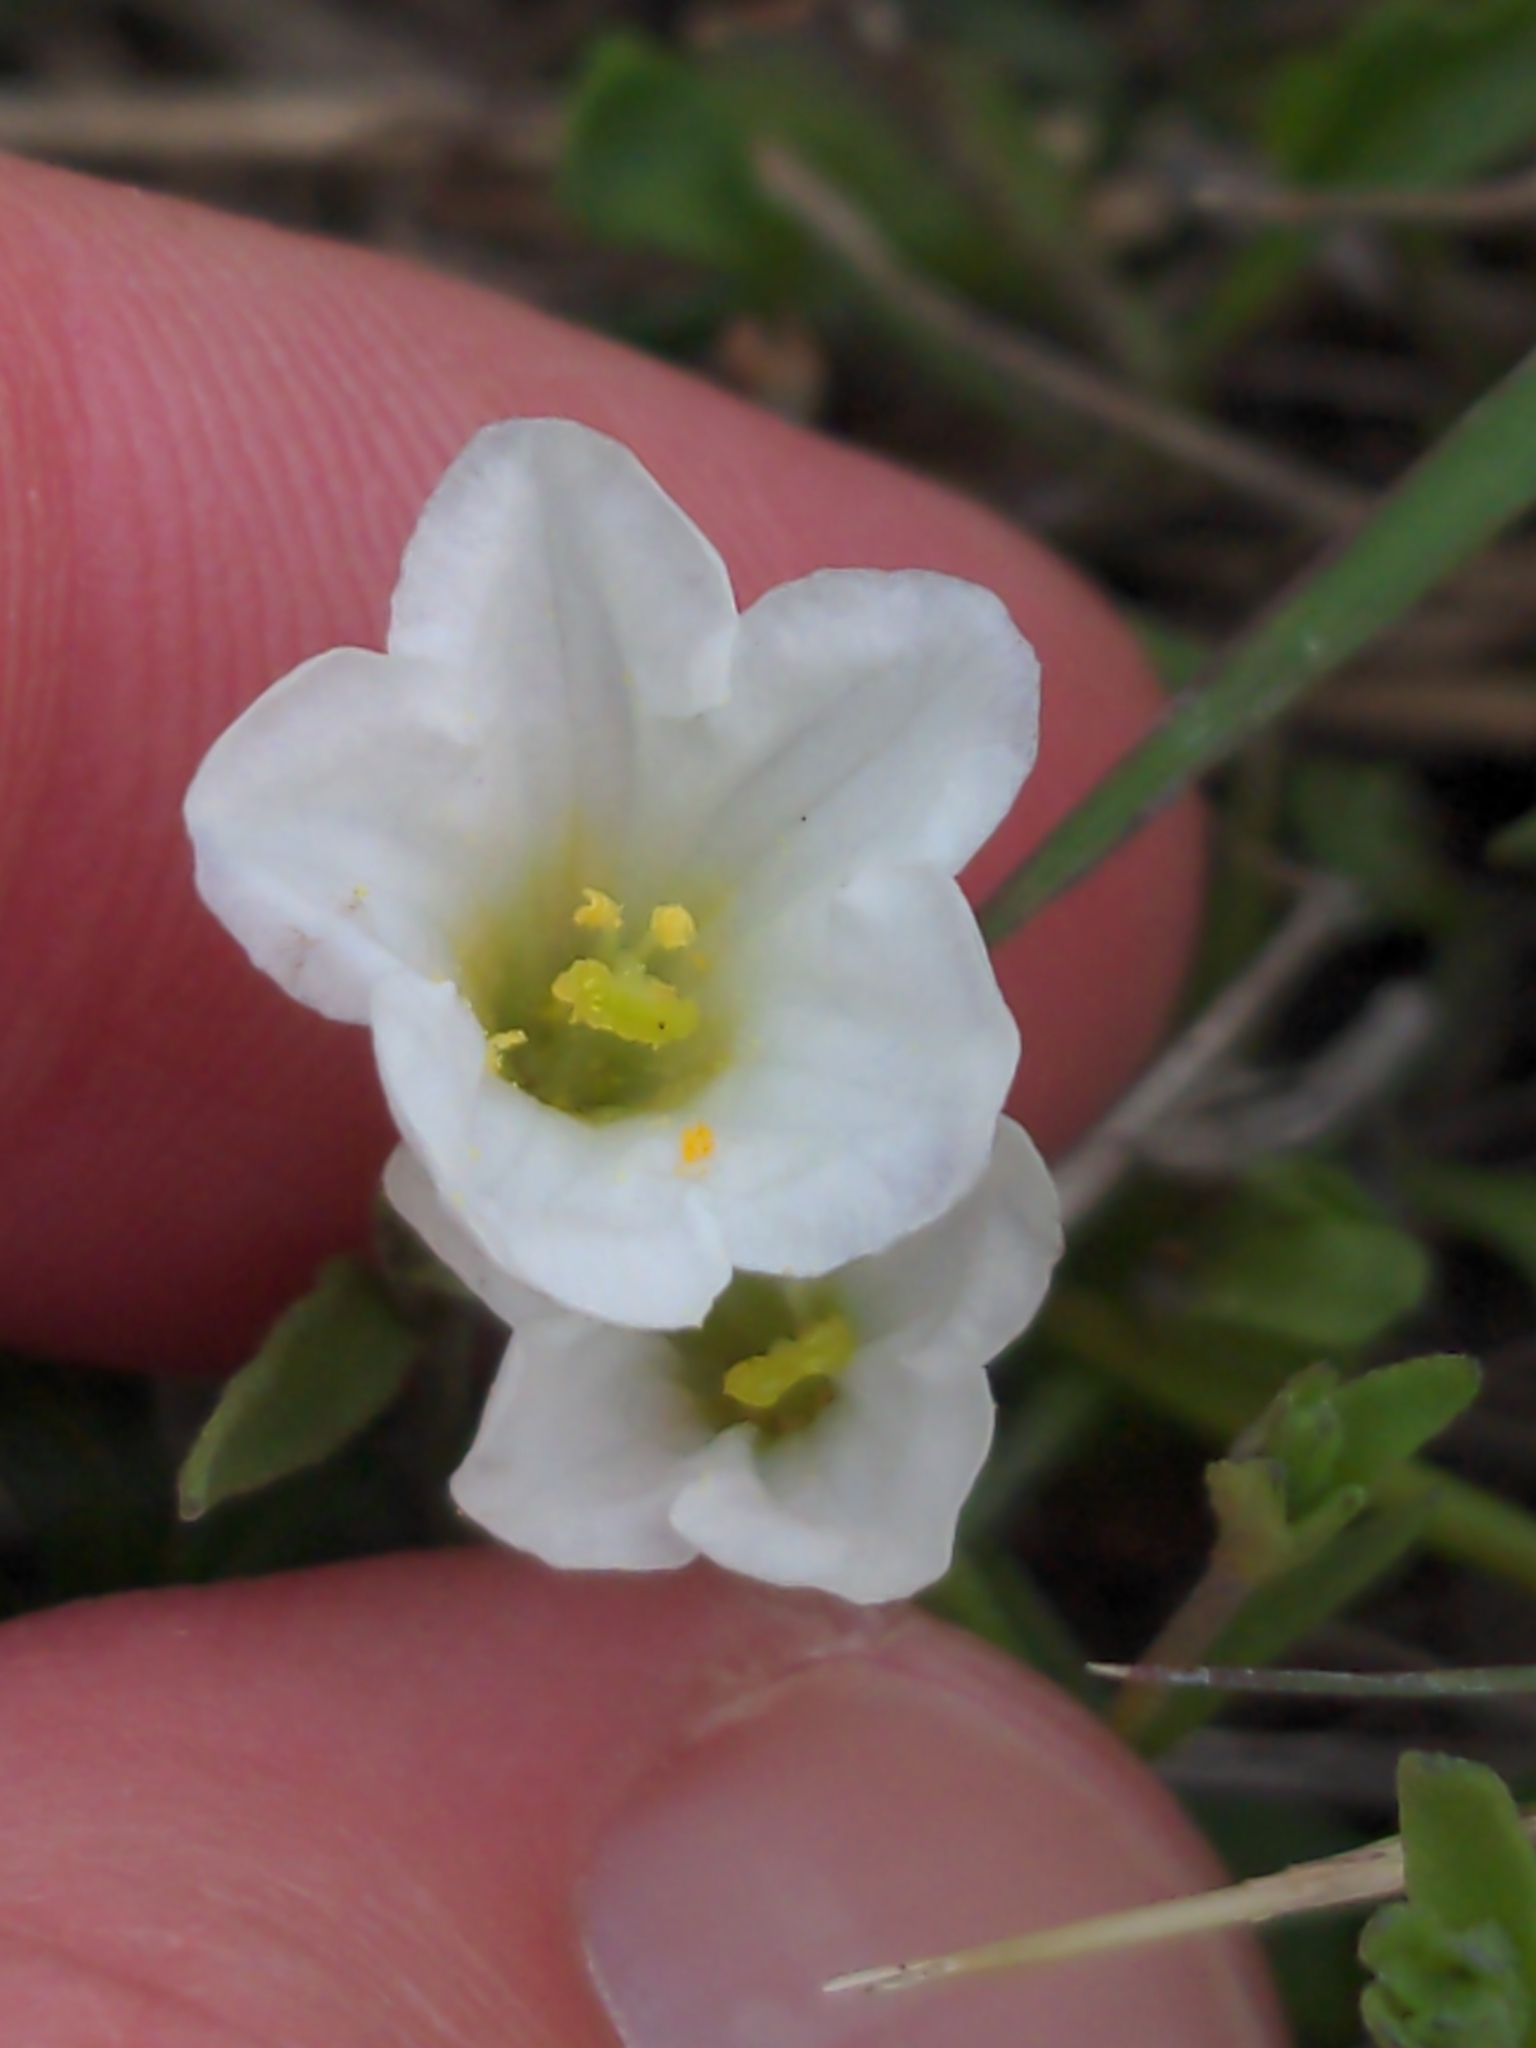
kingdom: Plantae
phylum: Tracheophyta
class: Magnoliopsida
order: Solanales
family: Solanaceae
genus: Salpiglossis
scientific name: Salpiglossis erecta
